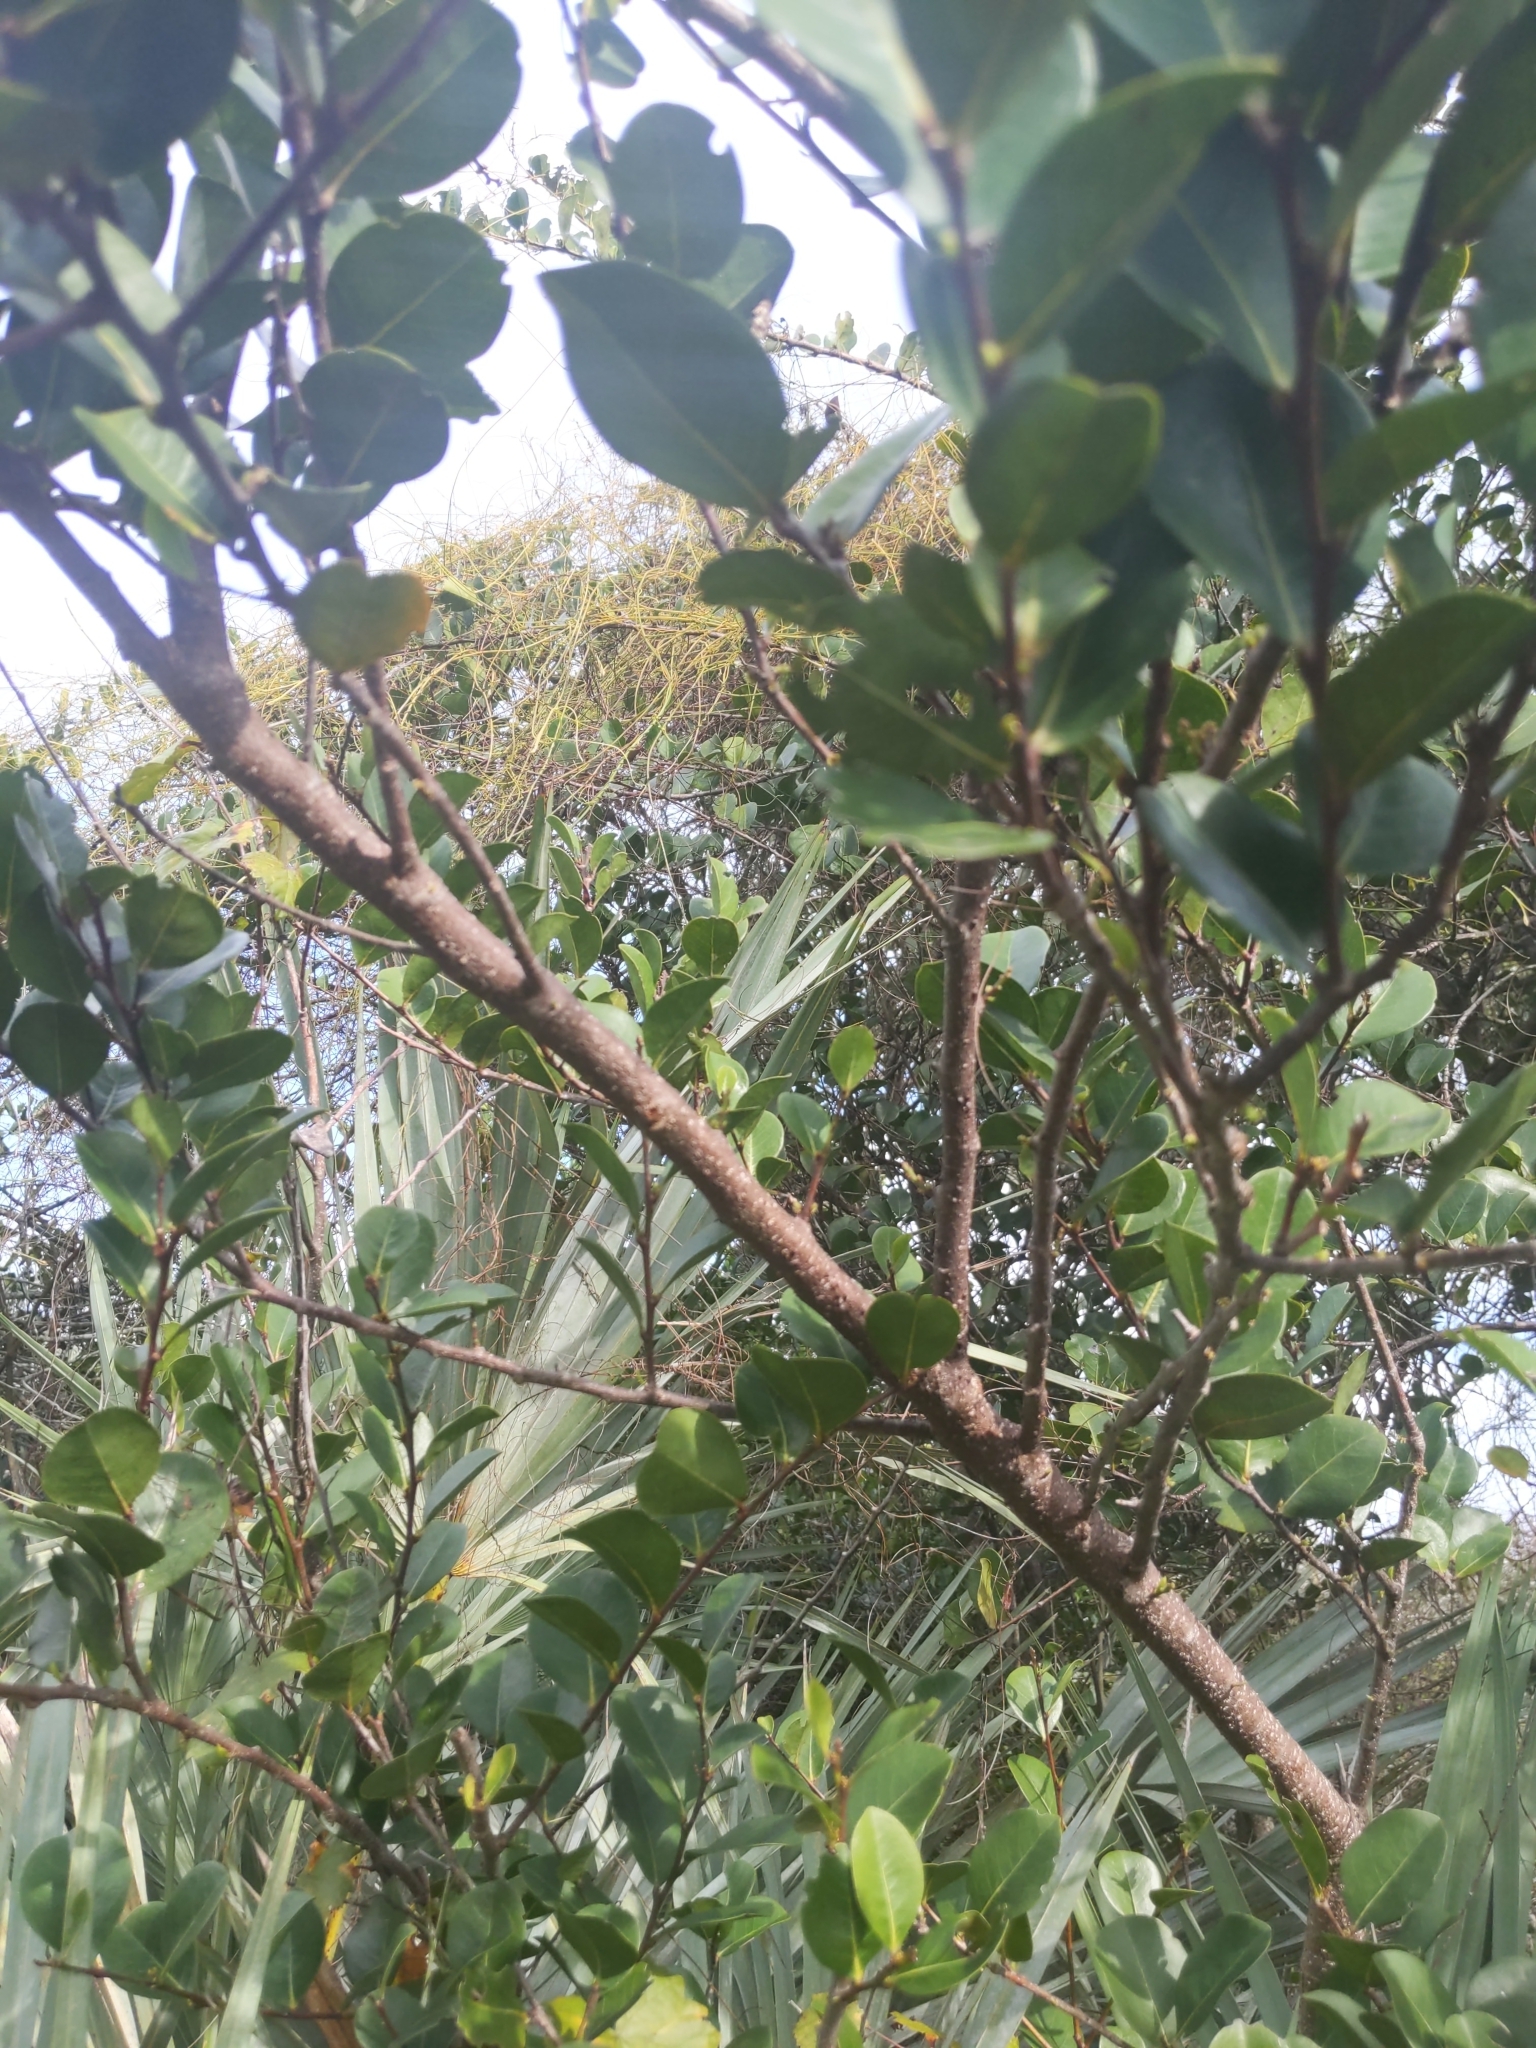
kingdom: Plantae
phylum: Tracheophyta
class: Magnoliopsida
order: Malpighiales
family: Chrysobalanaceae
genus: Chrysobalanus
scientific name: Chrysobalanus icaco
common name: Coco plum
